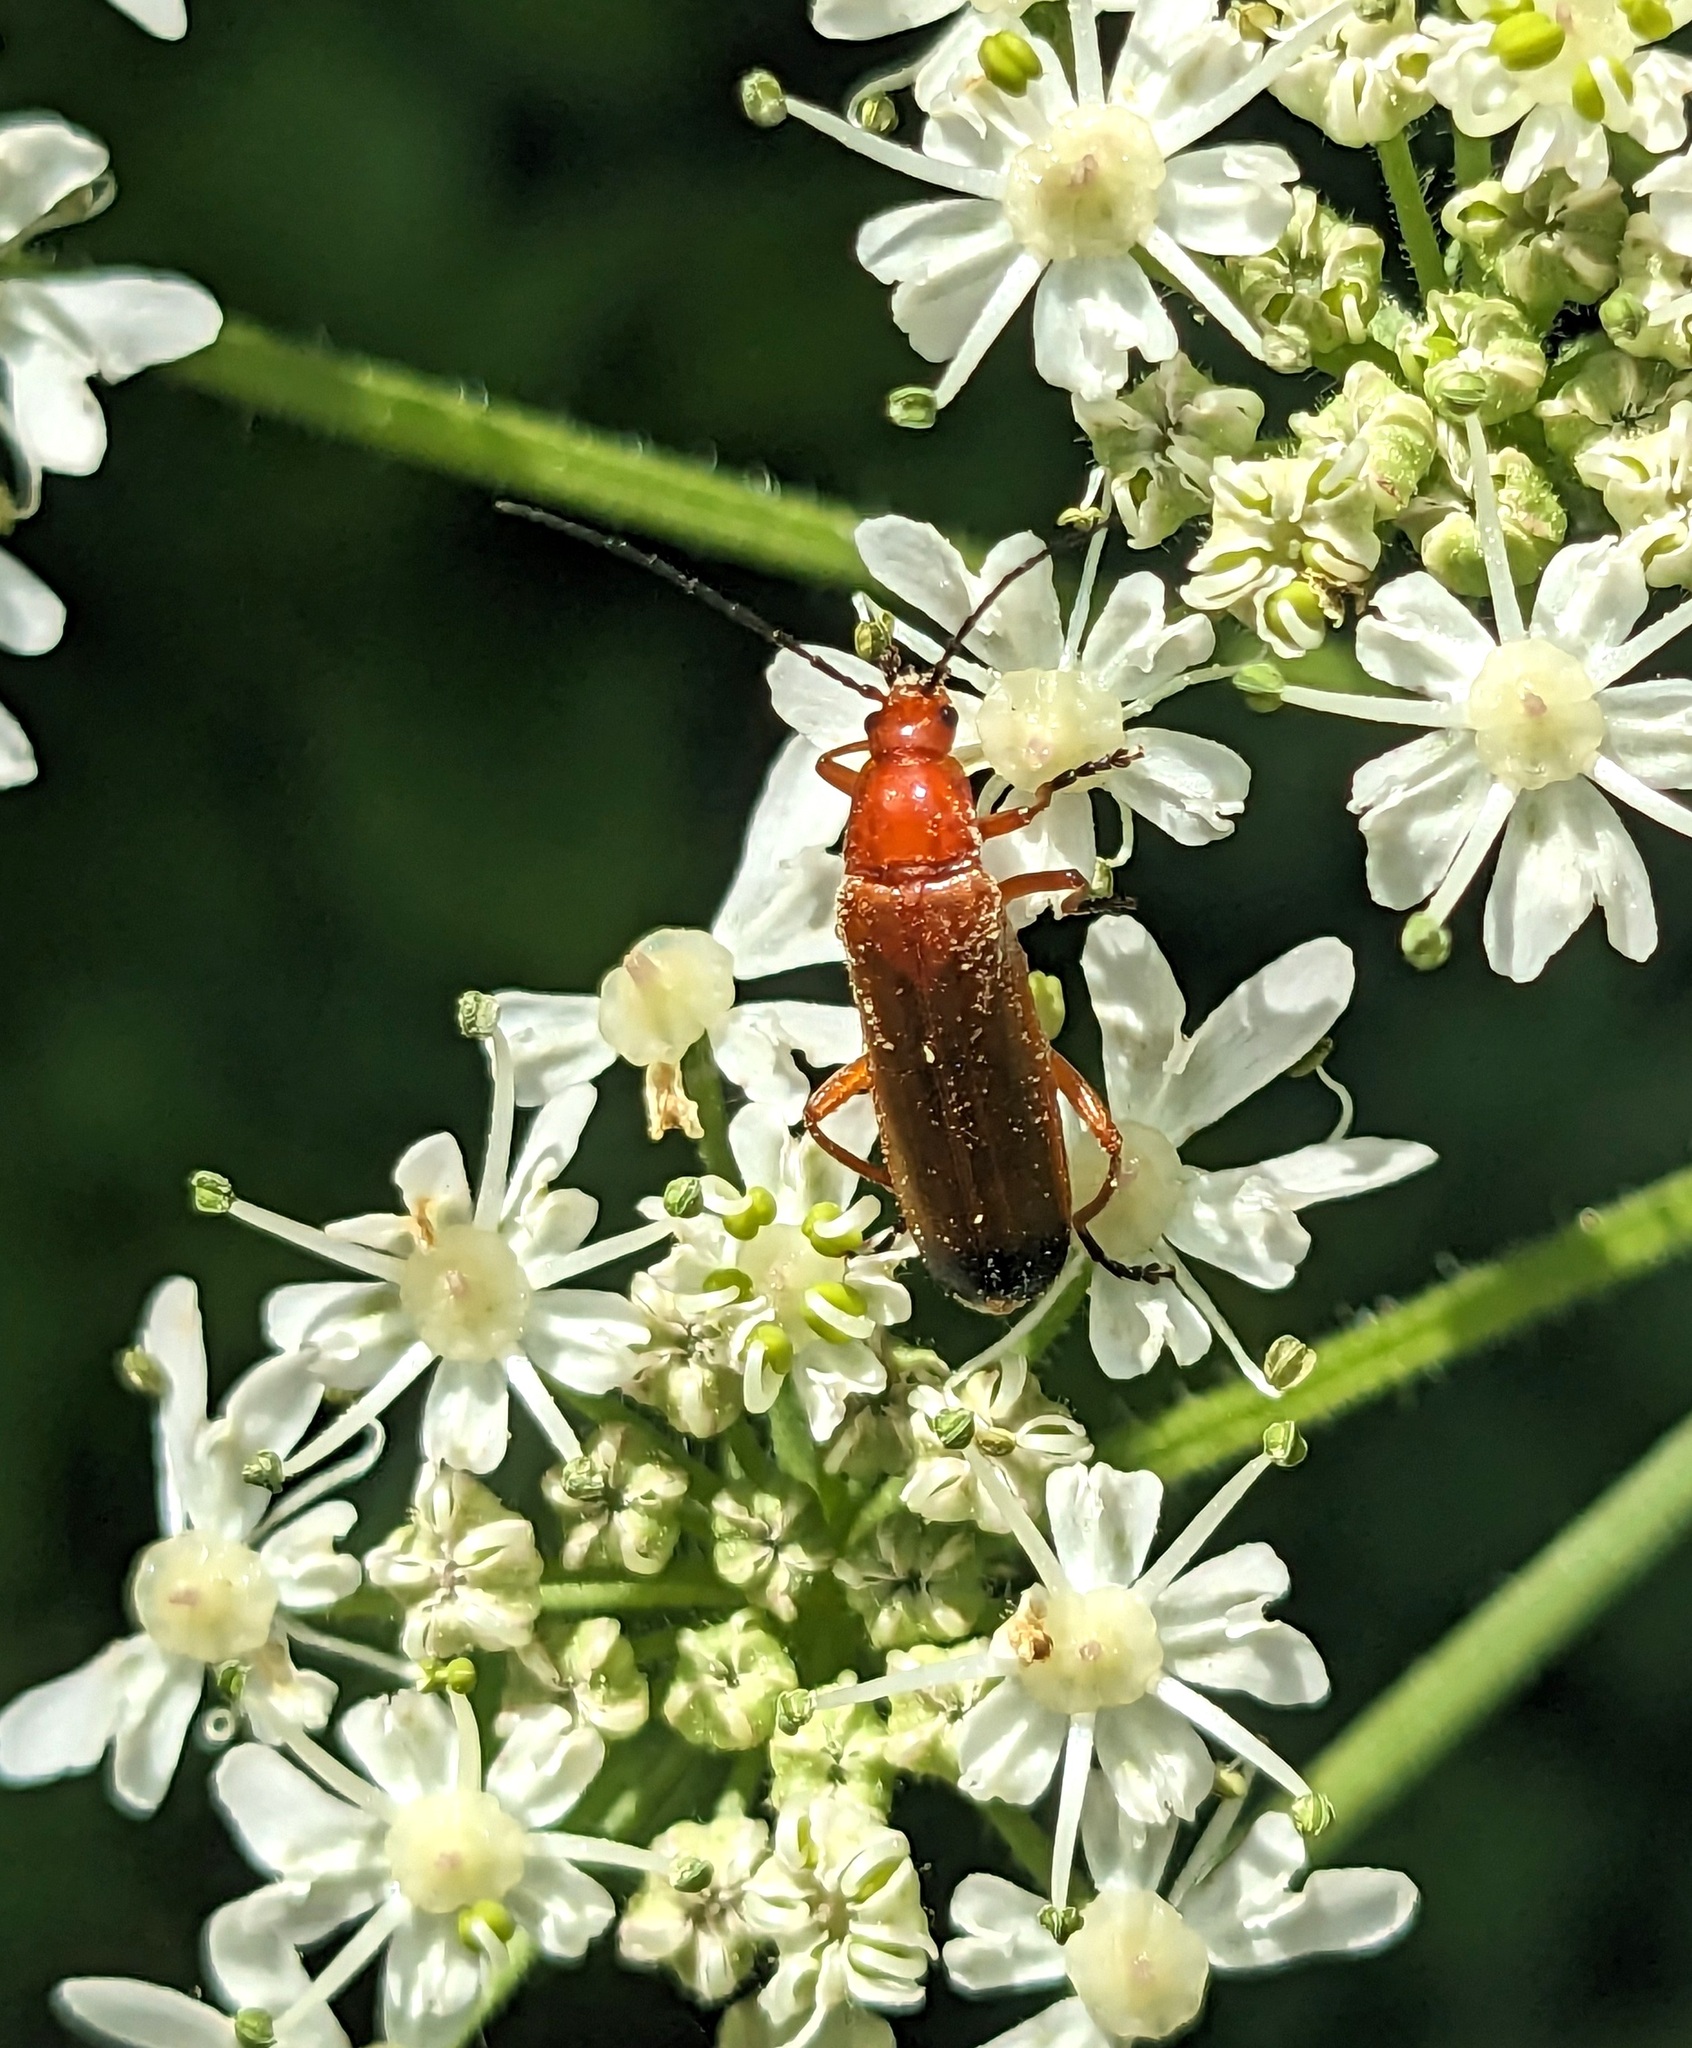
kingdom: Animalia
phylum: Arthropoda
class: Insecta
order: Coleoptera
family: Cantharidae
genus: Rhagonycha
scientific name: Rhagonycha fulva
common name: Common red soldier beetle
